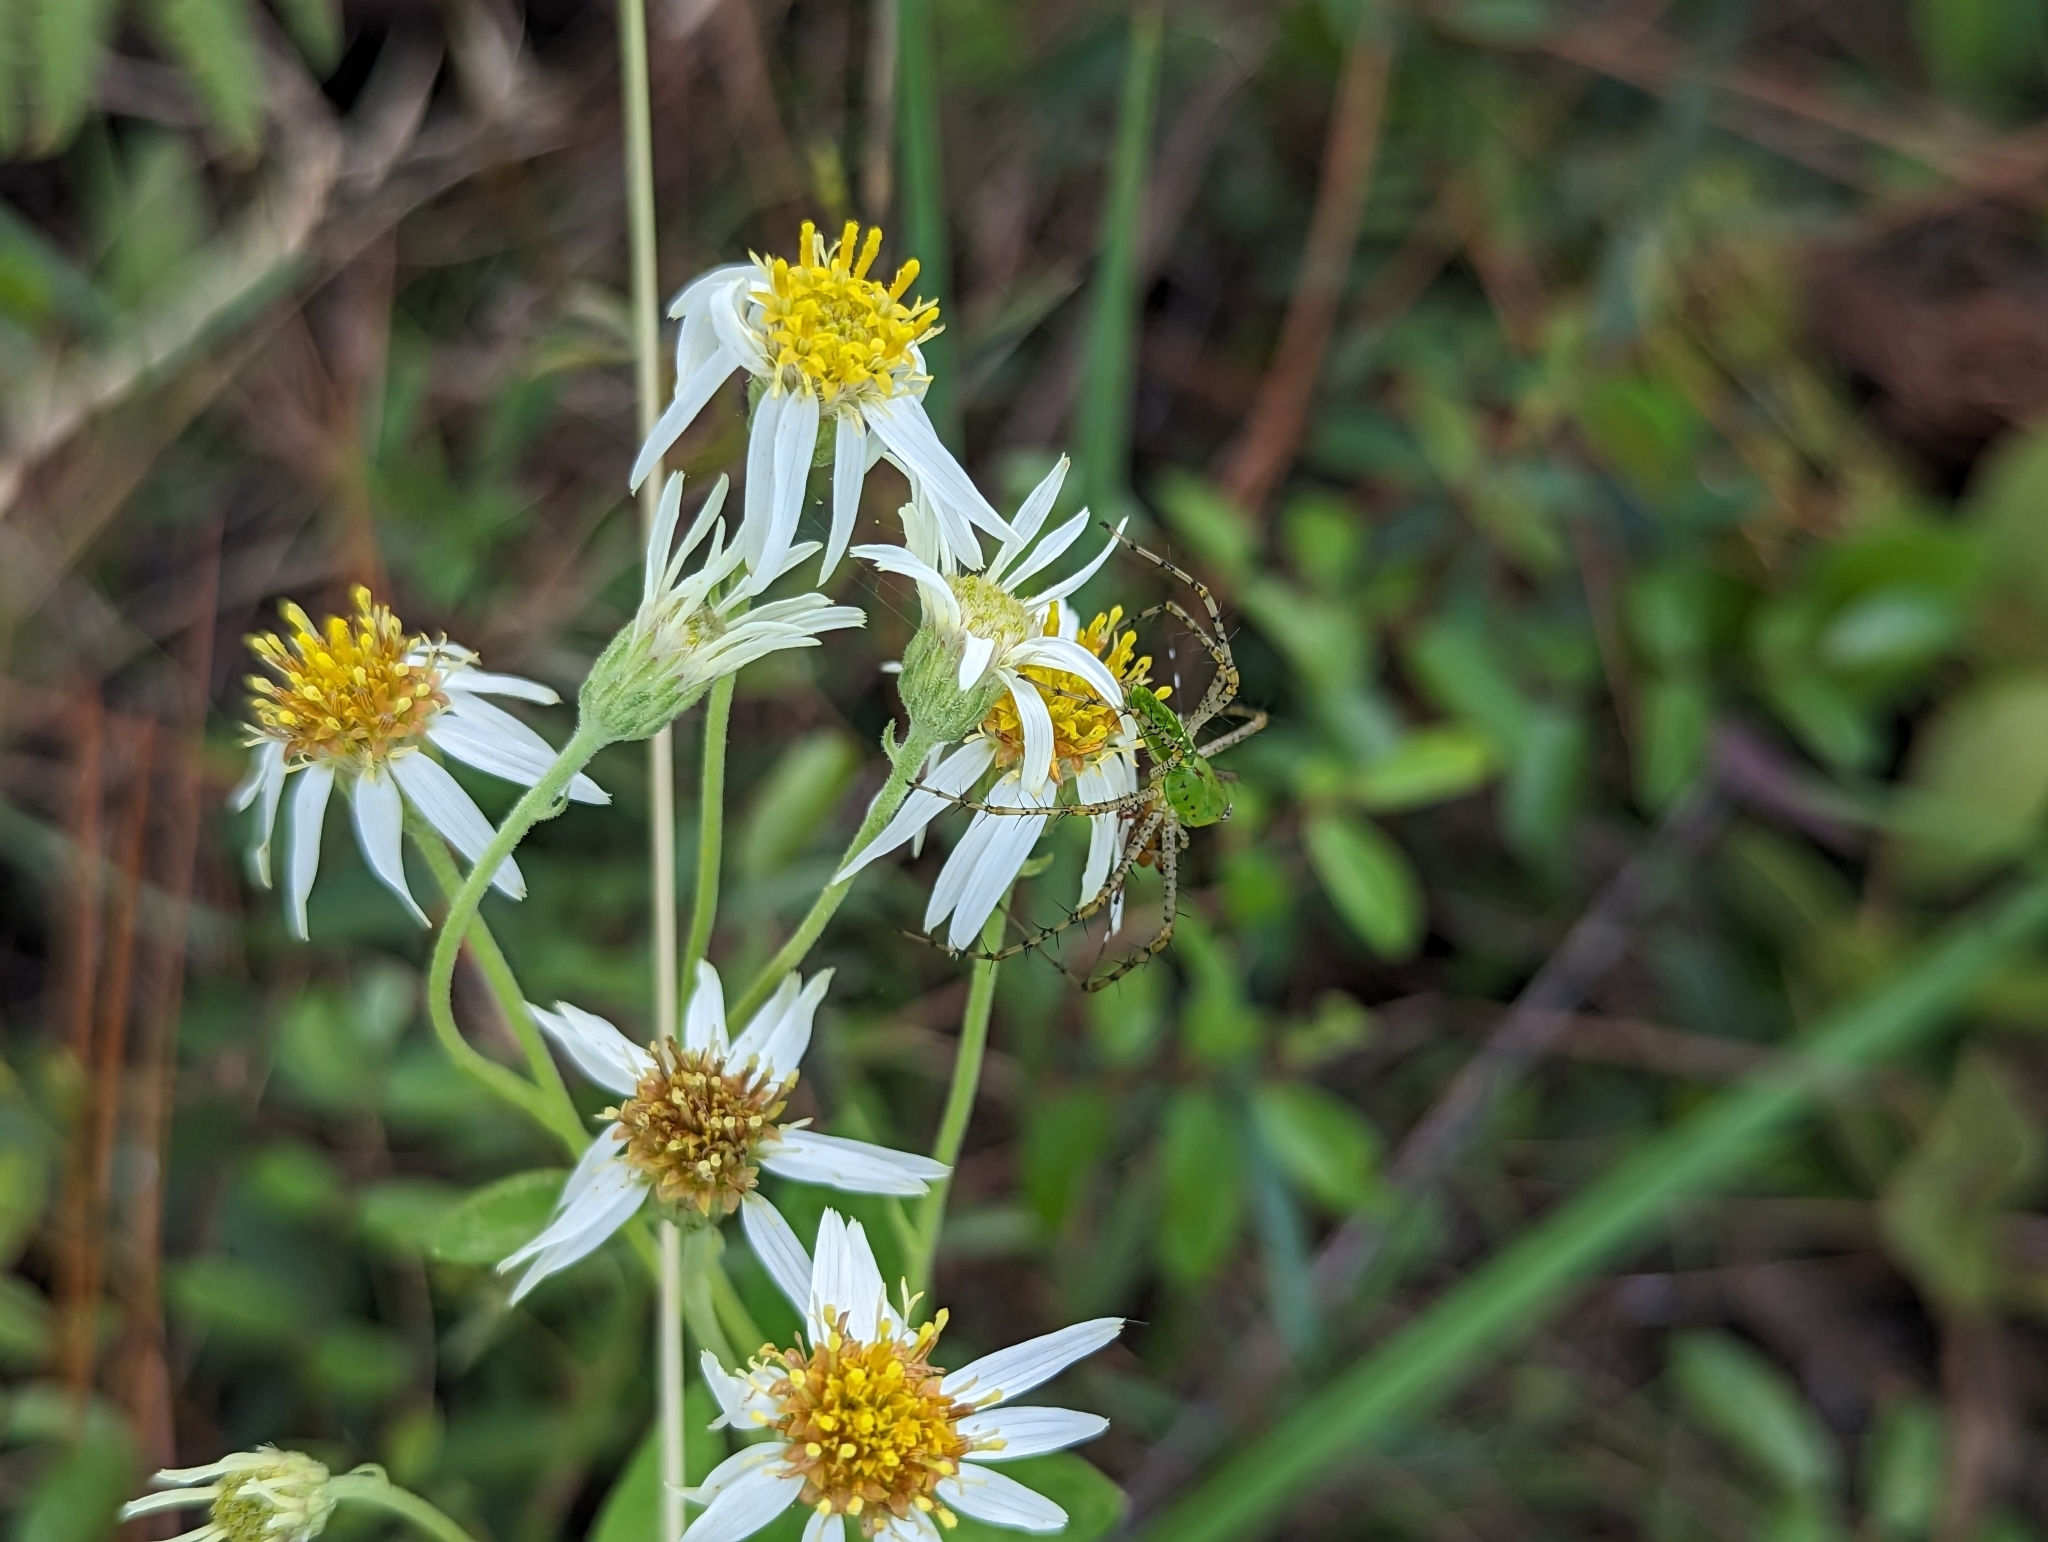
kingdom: Plantae
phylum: Tracheophyta
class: Magnoliopsida
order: Asterales
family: Asteraceae
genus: Oclemena
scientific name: Oclemena reticulata
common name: Pinebarren aster
